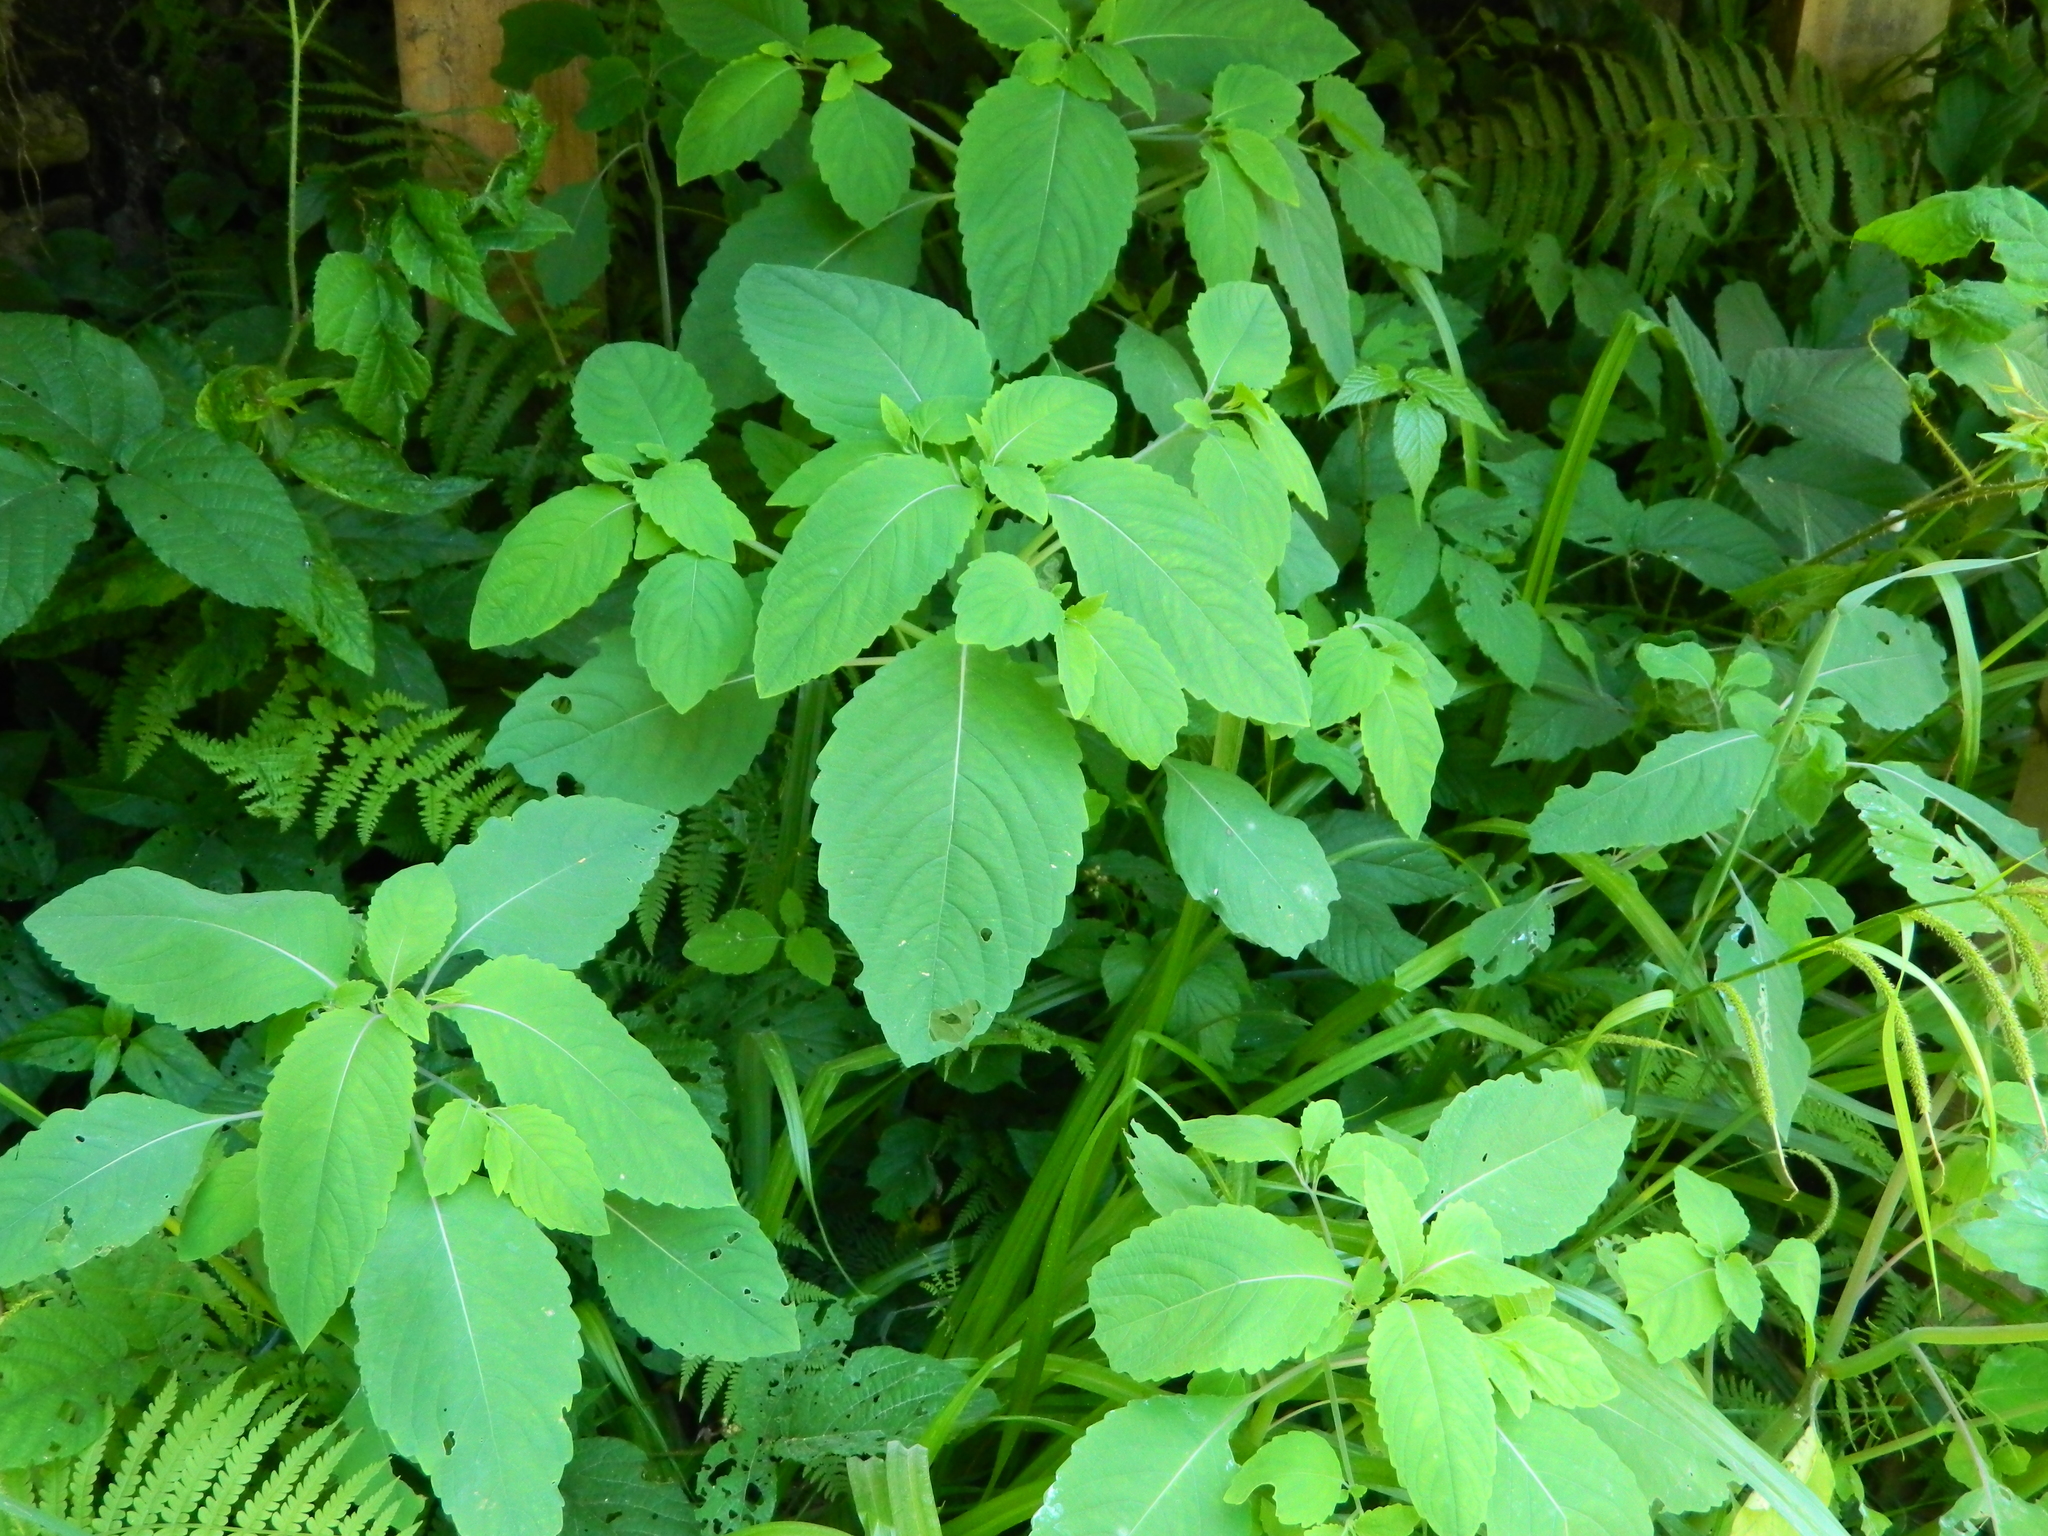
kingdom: Plantae
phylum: Tracheophyta
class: Magnoliopsida
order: Ericales
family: Balsaminaceae
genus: Impatiens
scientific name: Impatiens noli-tangere
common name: Touch-me-not balsam
